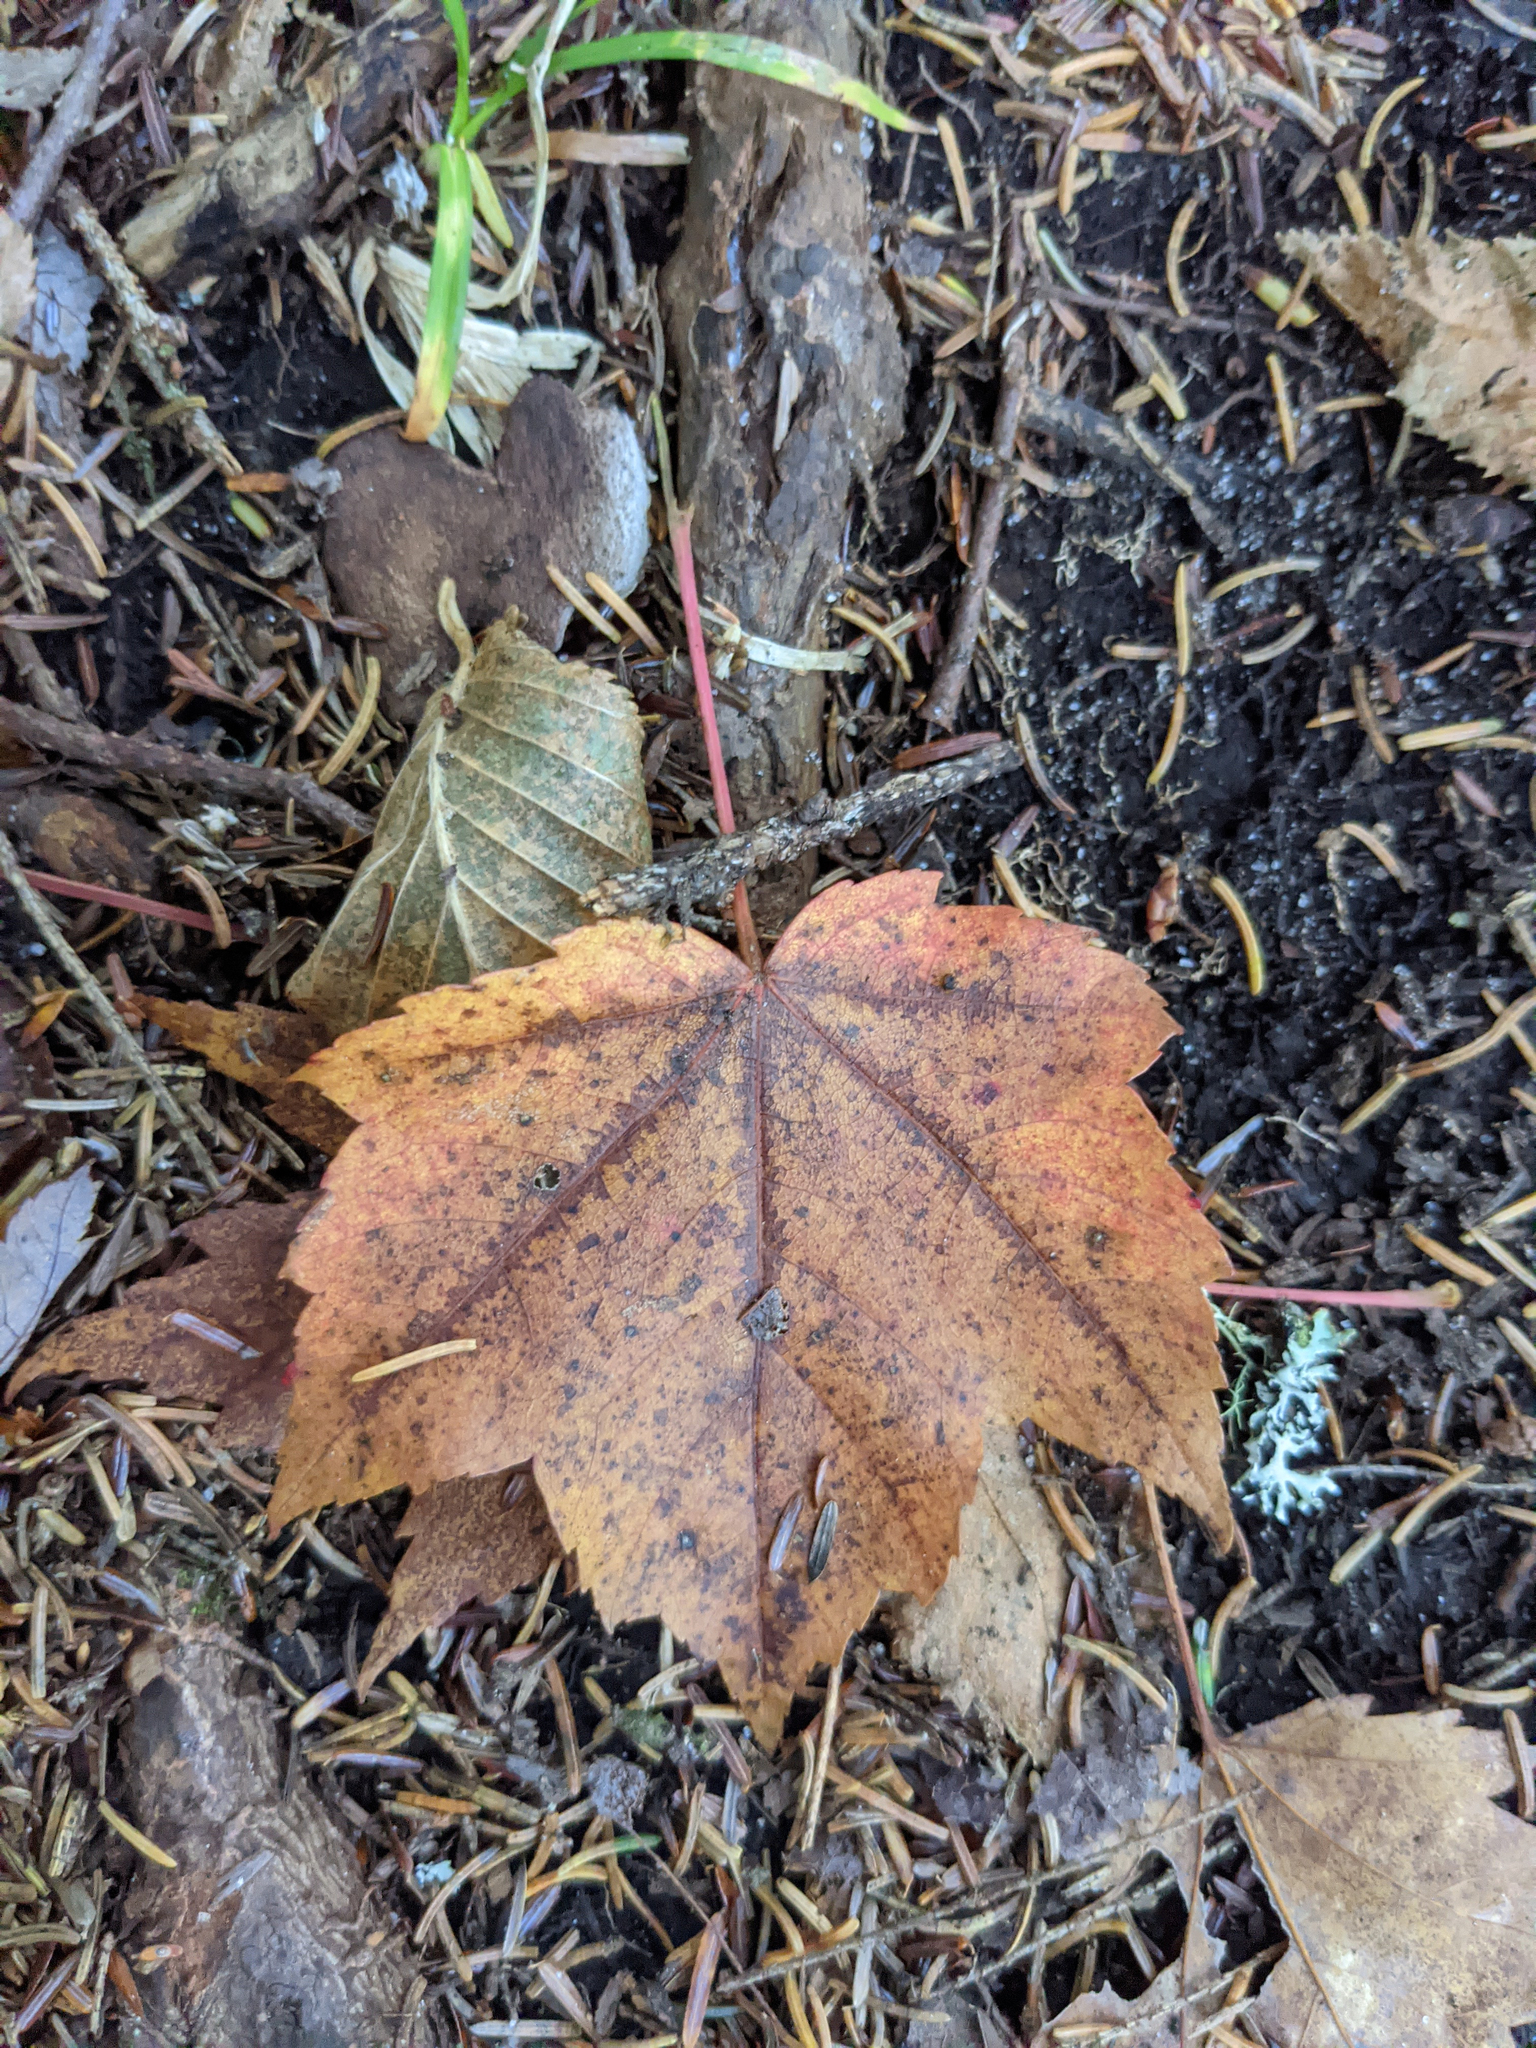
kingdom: Plantae
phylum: Tracheophyta
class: Magnoliopsida
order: Sapindales
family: Sapindaceae
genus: Acer
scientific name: Acer rubrum
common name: Red maple
